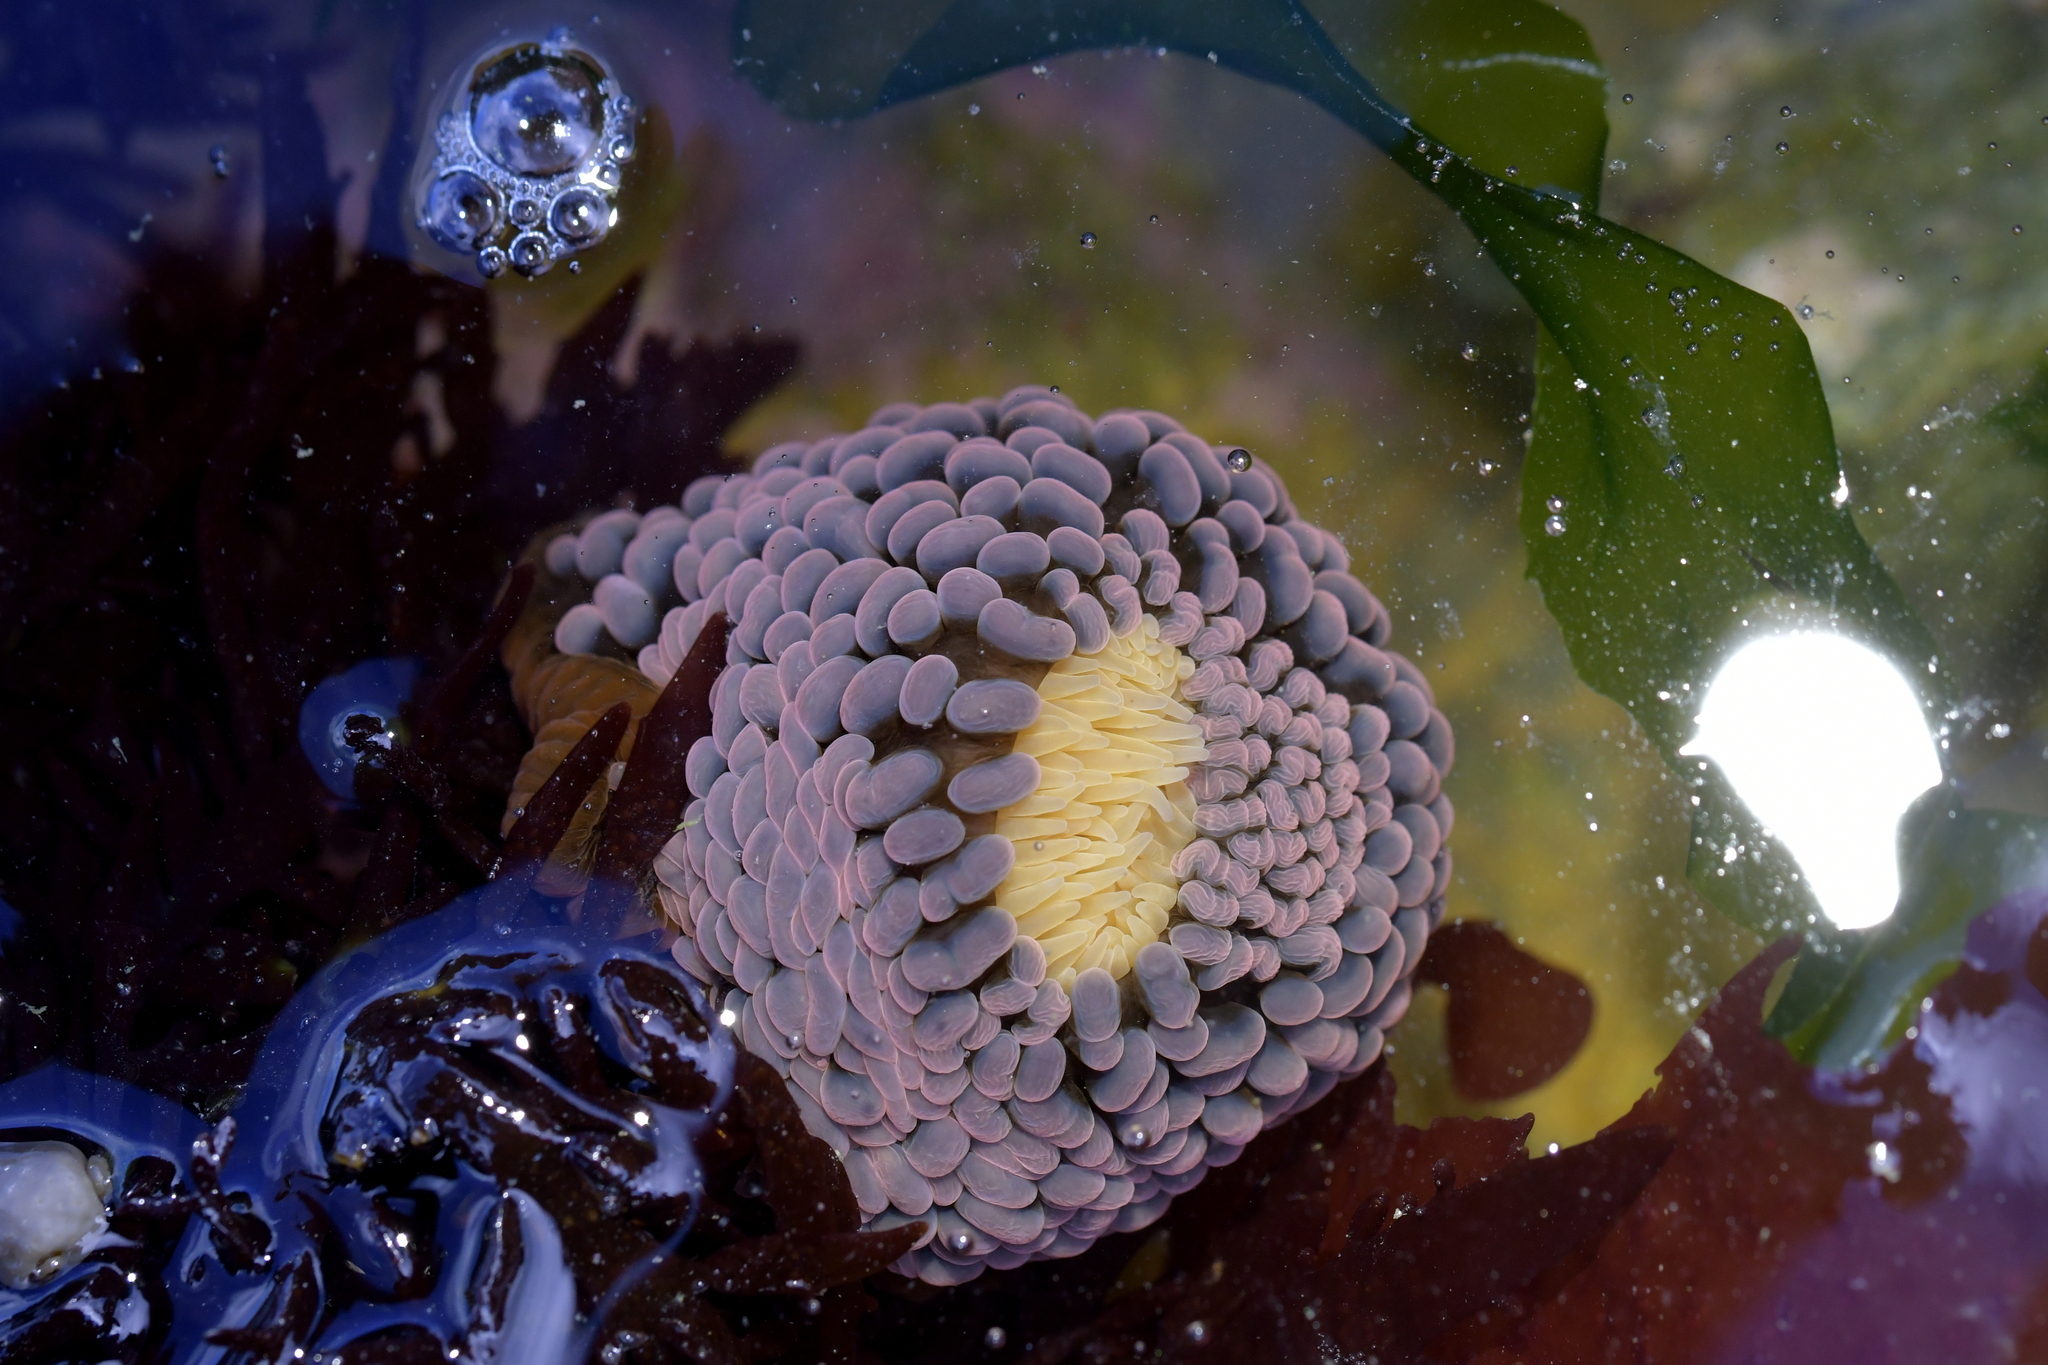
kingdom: Animalia
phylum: Cnidaria
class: Anthozoa
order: Actiniaria
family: Actiniidae
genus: Phlyctenactis
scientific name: Phlyctenactis tuberculosa
